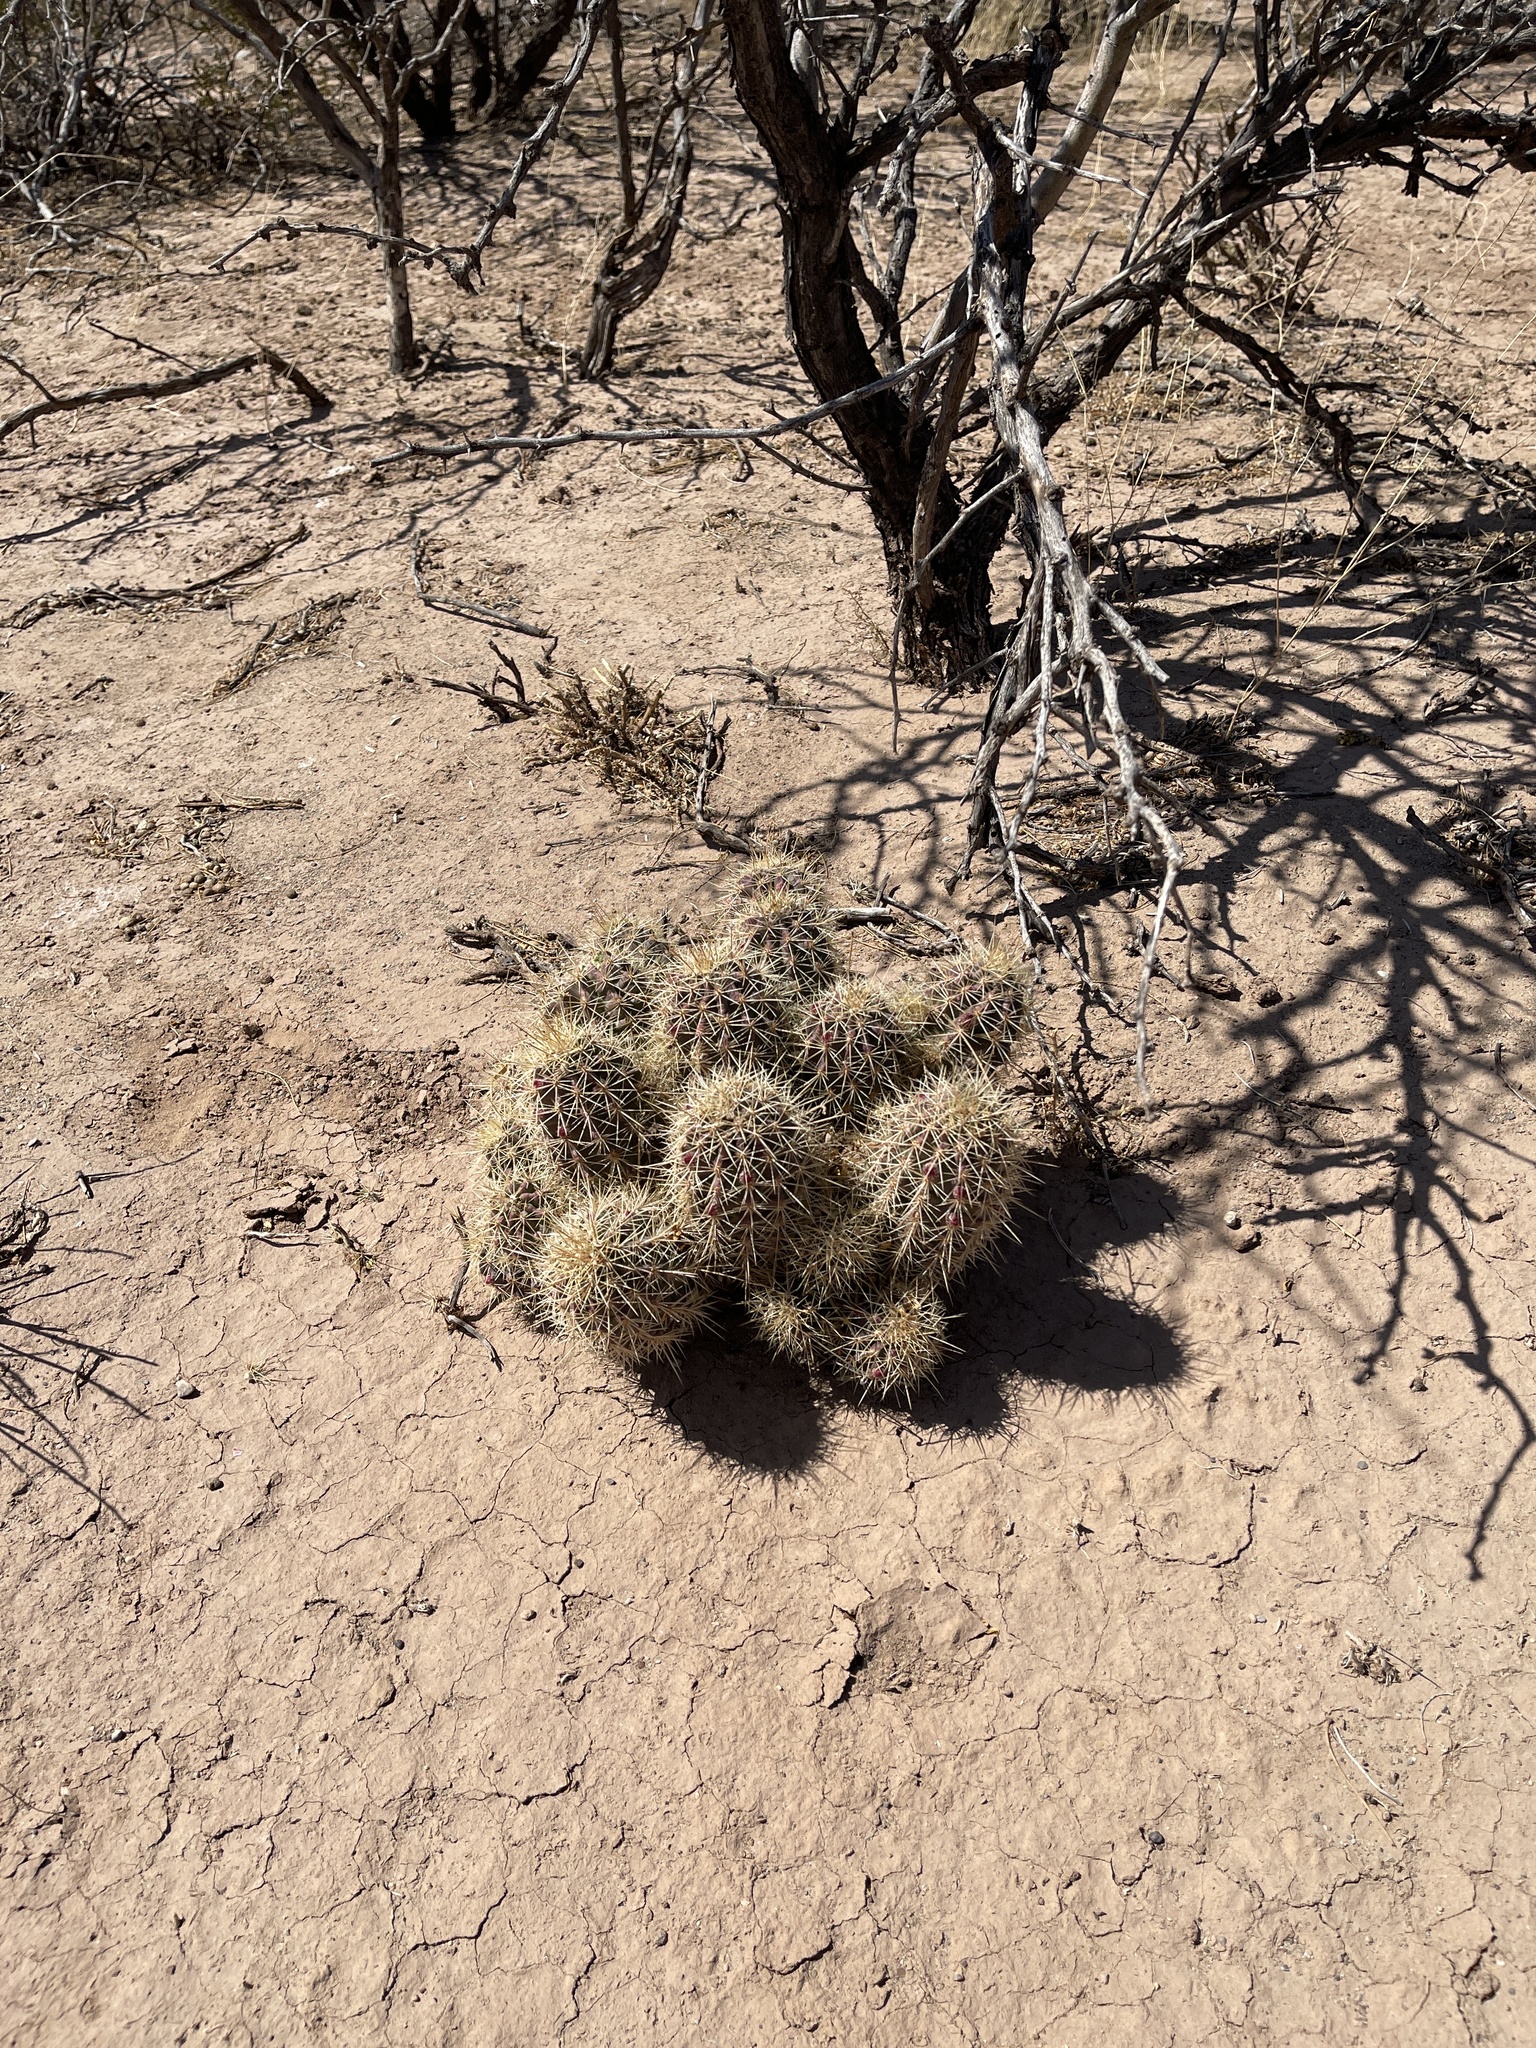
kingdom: Plantae
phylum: Tracheophyta
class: Magnoliopsida
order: Caryophyllales
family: Cactaceae
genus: Echinocereus
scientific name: Echinocereus coccineus
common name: Scarlet hedgehog cactus
